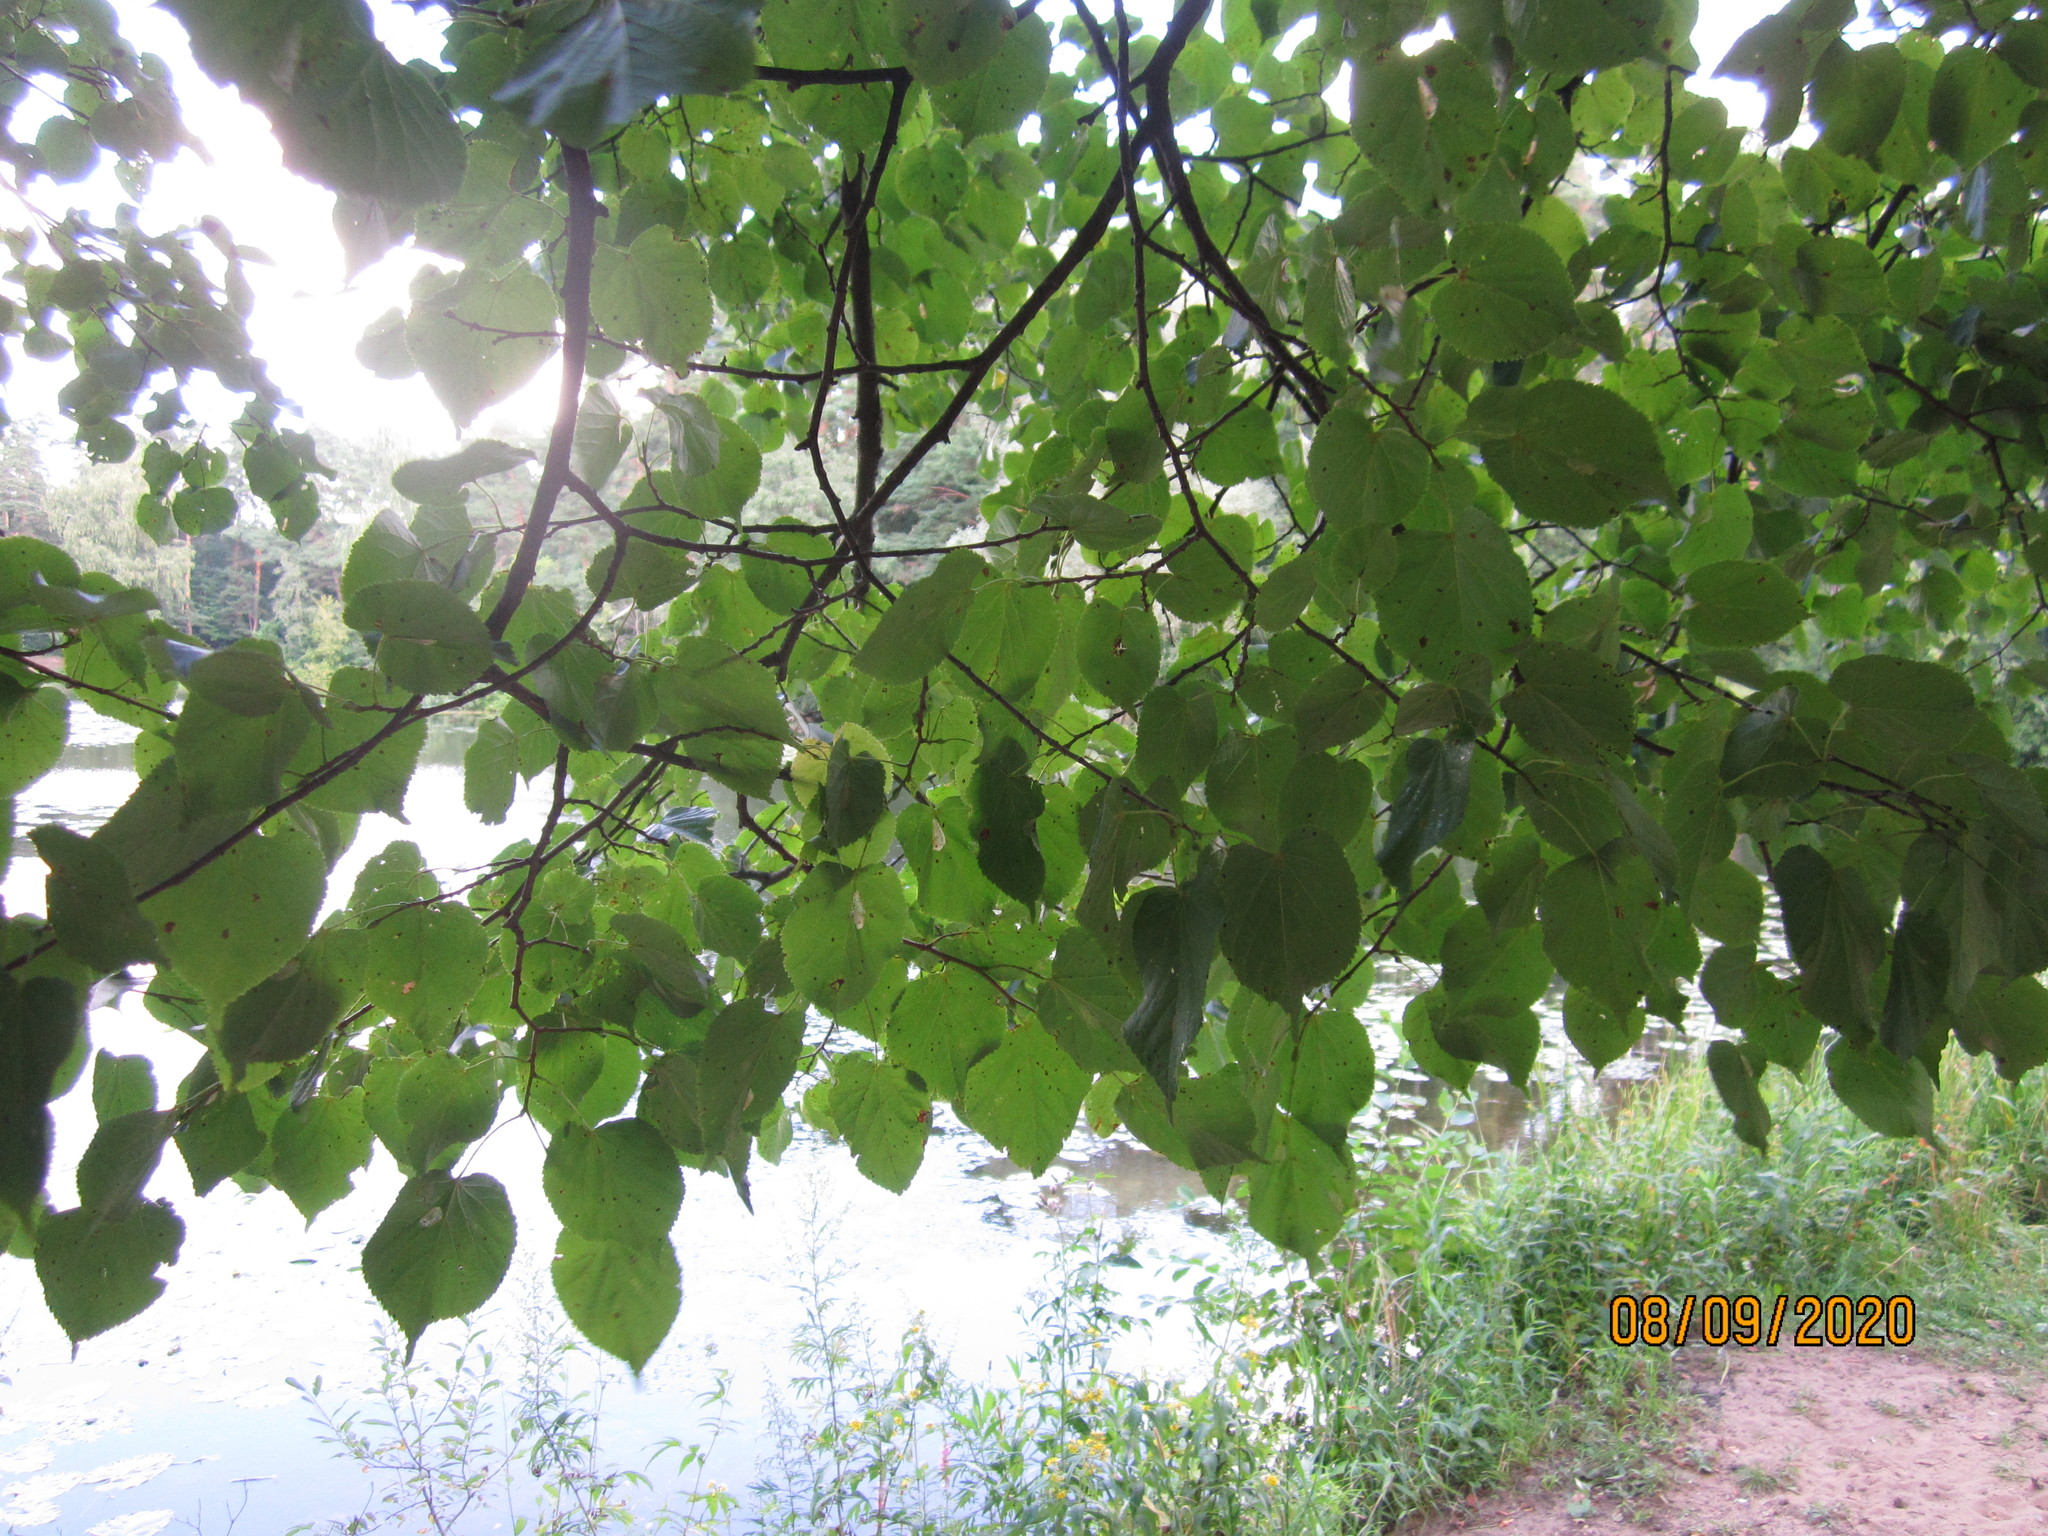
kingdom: Plantae
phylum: Tracheophyta
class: Magnoliopsida
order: Malvales
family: Malvaceae
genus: Tilia
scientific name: Tilia cordata
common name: Small-leaved lime
